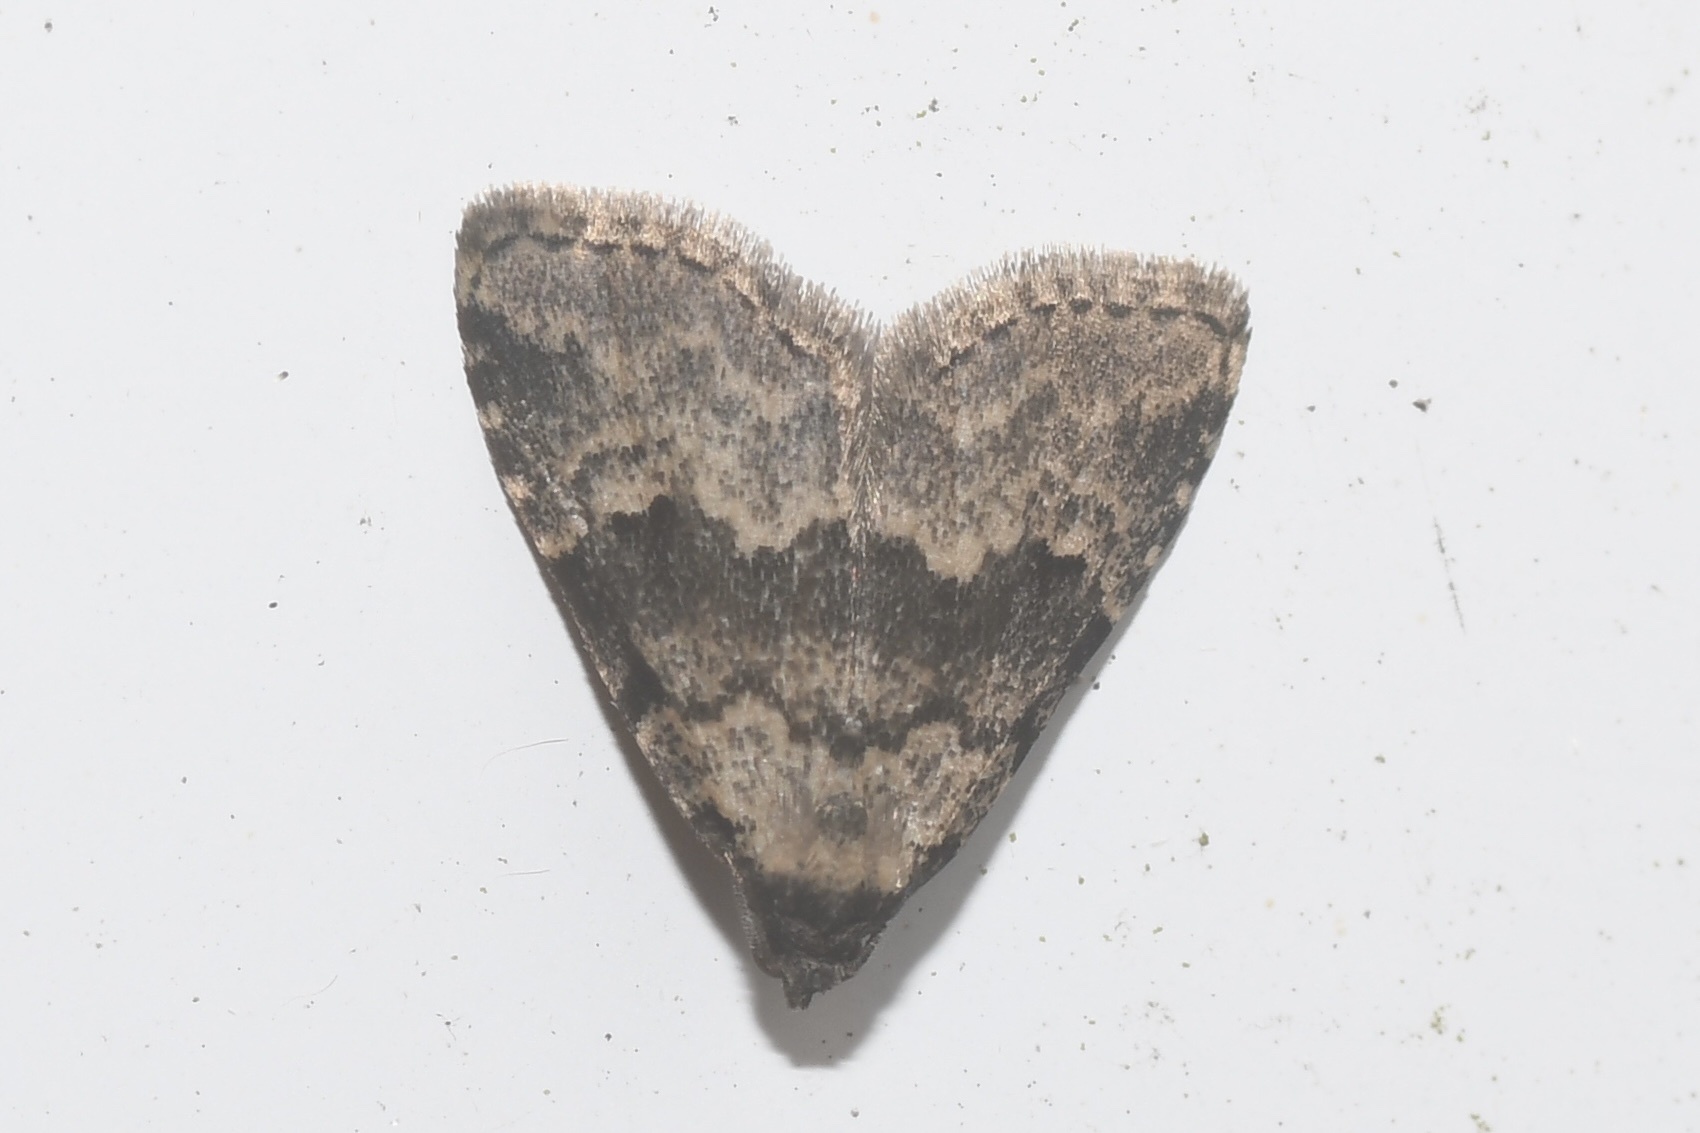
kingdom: Animalia
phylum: Arthropoda
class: Insecta
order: Lepidoptera
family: Erebidae
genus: Dyspyralis
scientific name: Dyspyralis illocata
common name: Visitation moth
